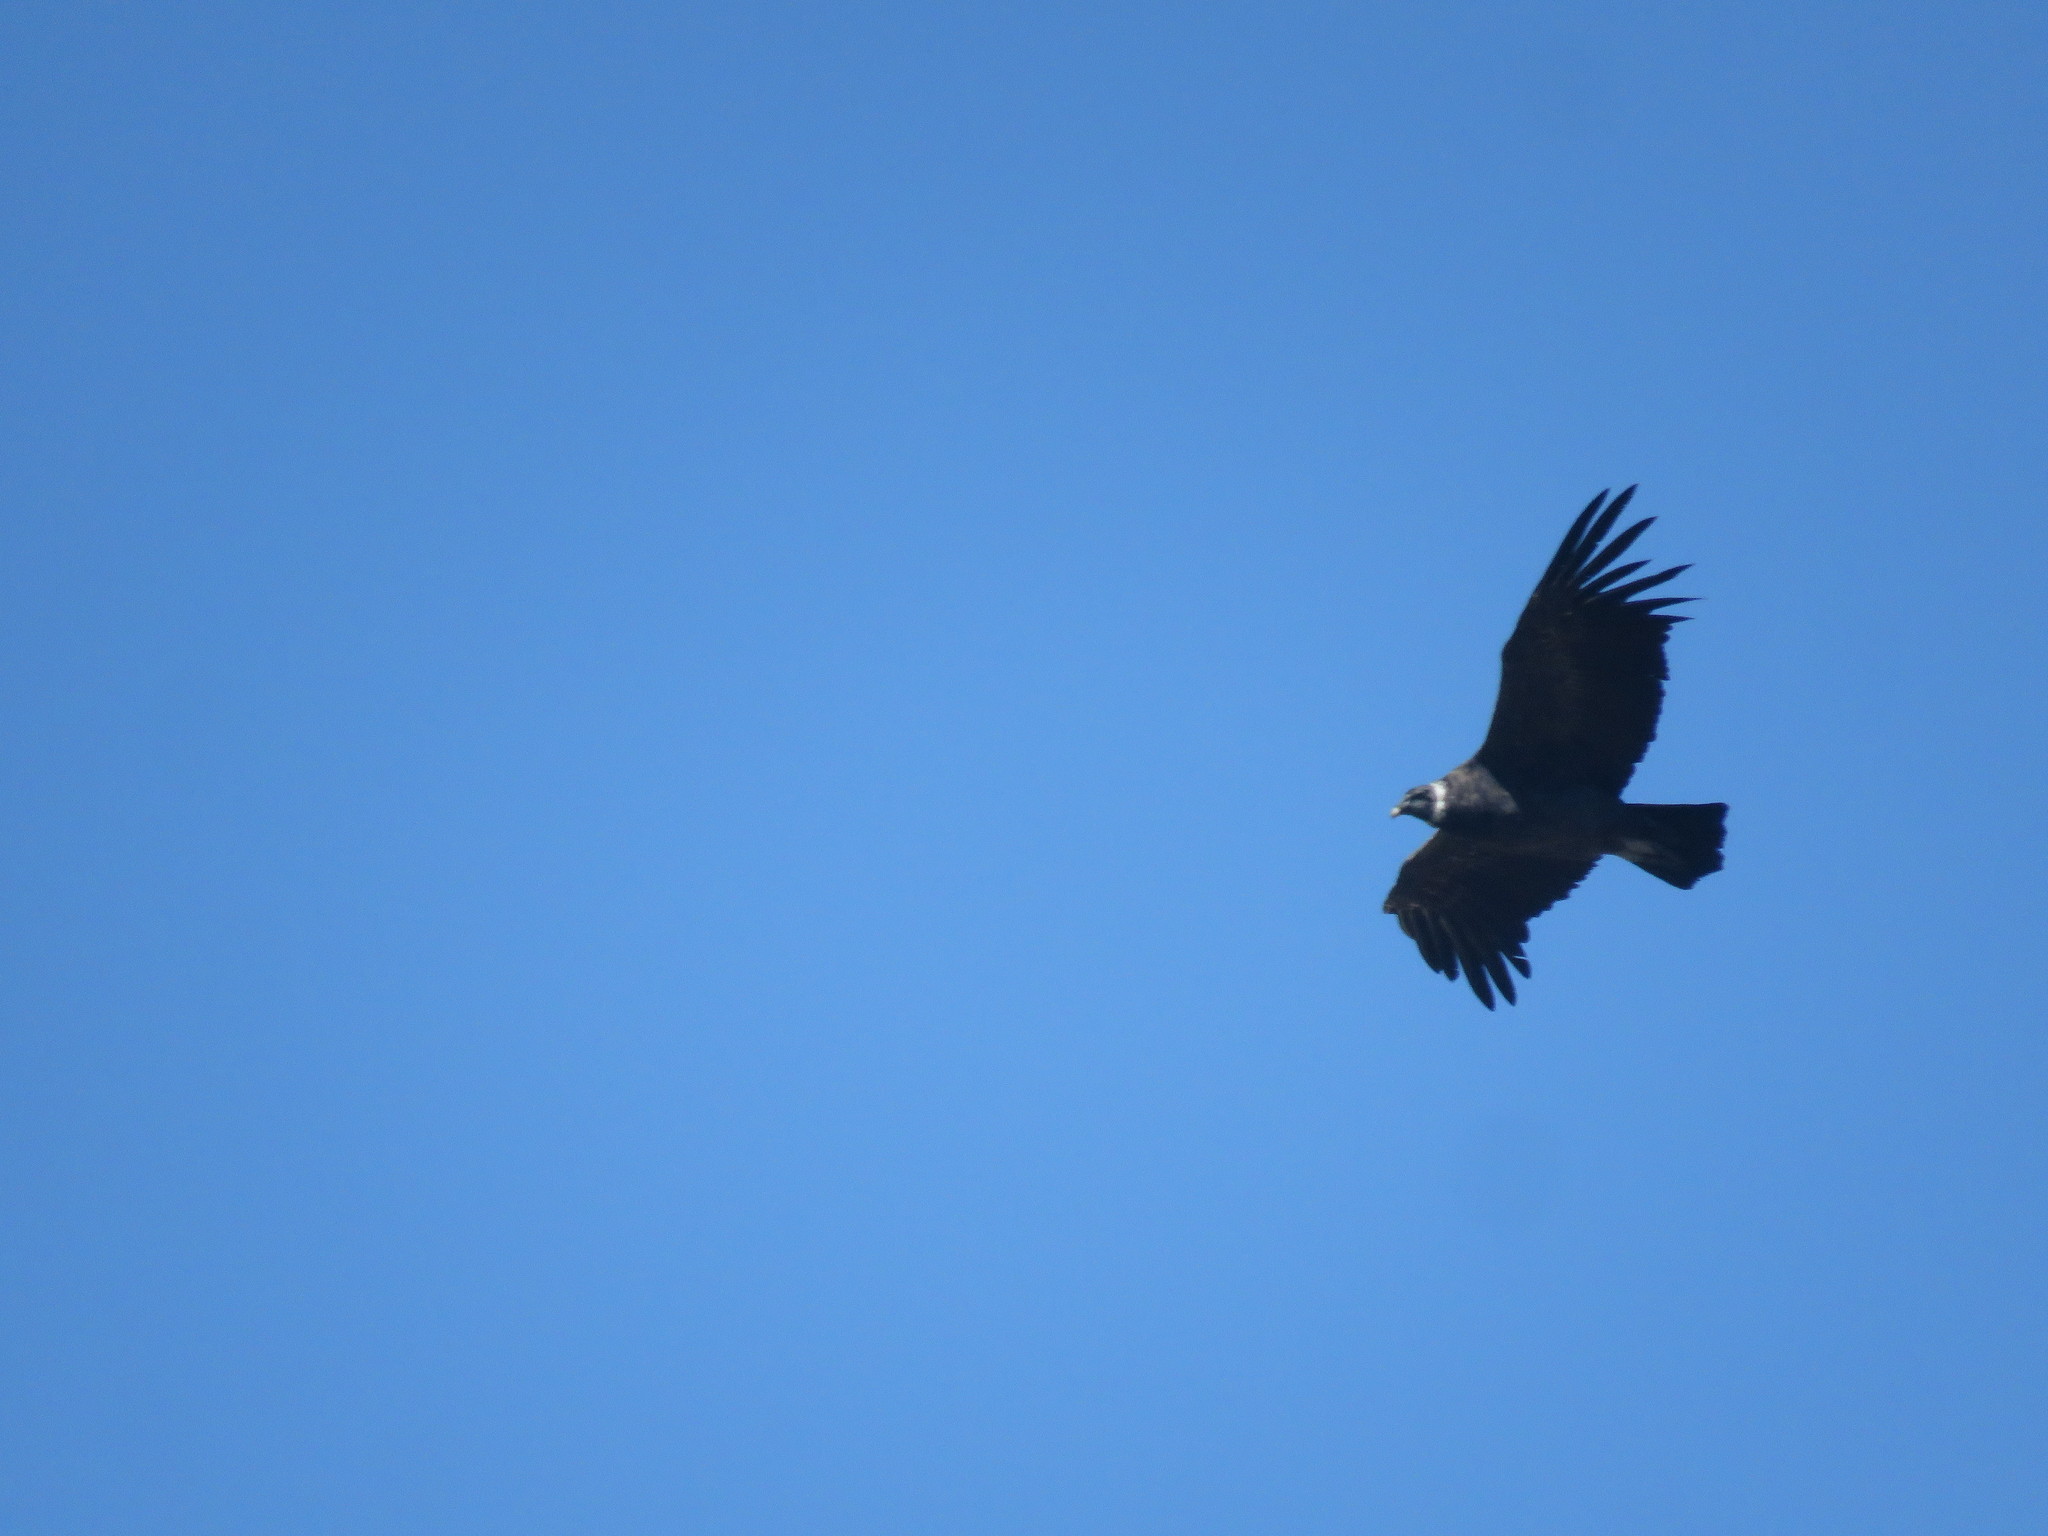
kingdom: Animalia
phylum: Chordata
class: Aves
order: Accipitriformes
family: Cathartidae
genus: Vultur
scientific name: Vultur gryphus
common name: Andean condor
